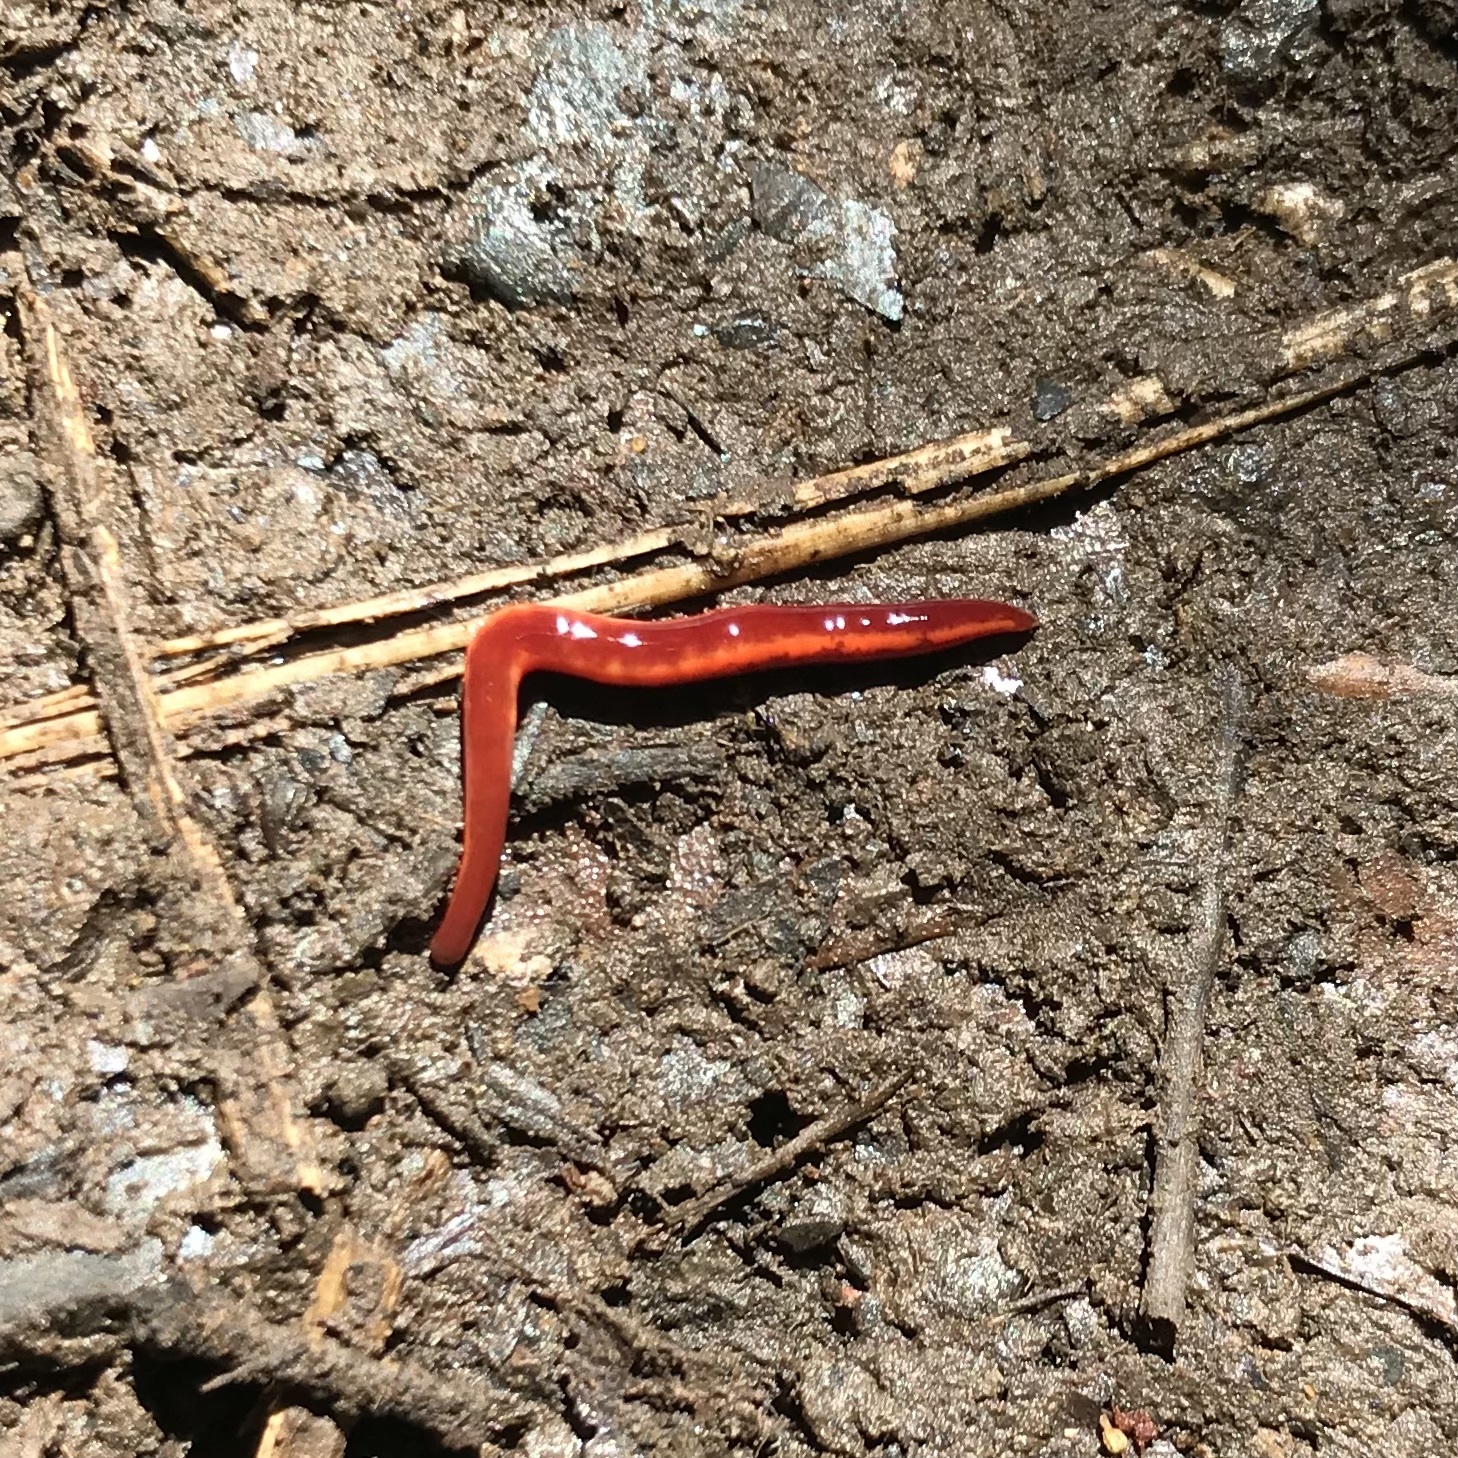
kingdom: Animalia
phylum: Nemertea
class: Hoplonemertea
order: Monostilifera
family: Acteonemertidae
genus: Argonemertes
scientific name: Argonemertes hillii
